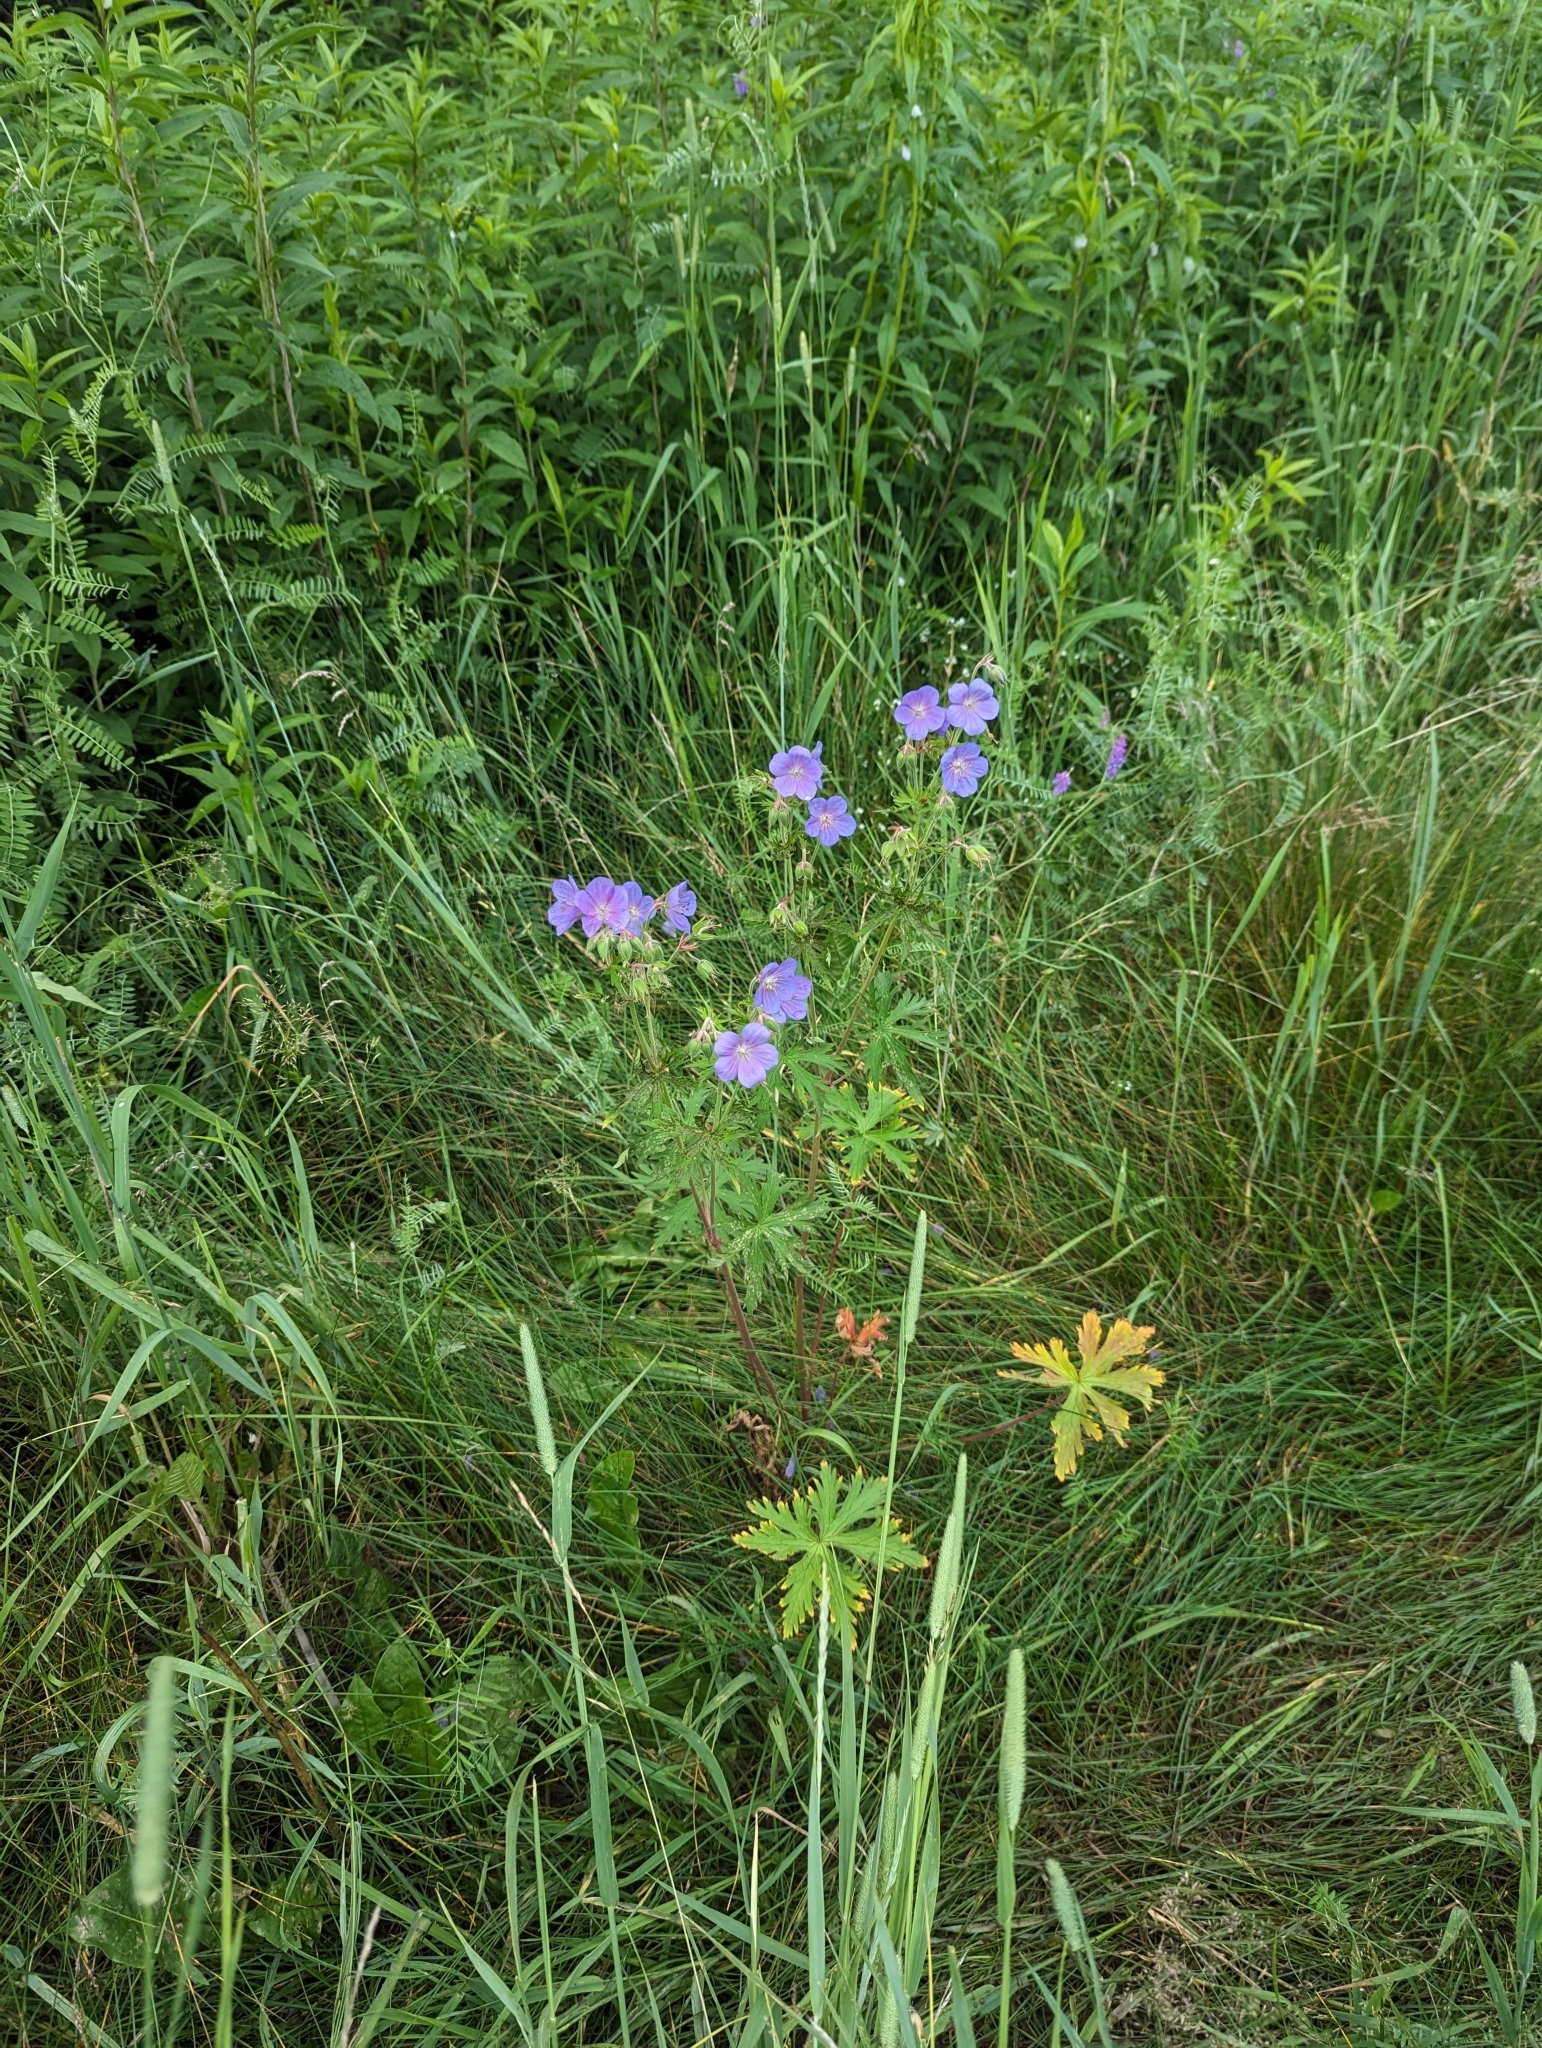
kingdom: Plantae
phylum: Tracheophyta
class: Magnoliopsida
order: Geraniales
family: Geraniaceae
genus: Geranium
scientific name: Geranium pratense
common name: Meadow crane's-bill
